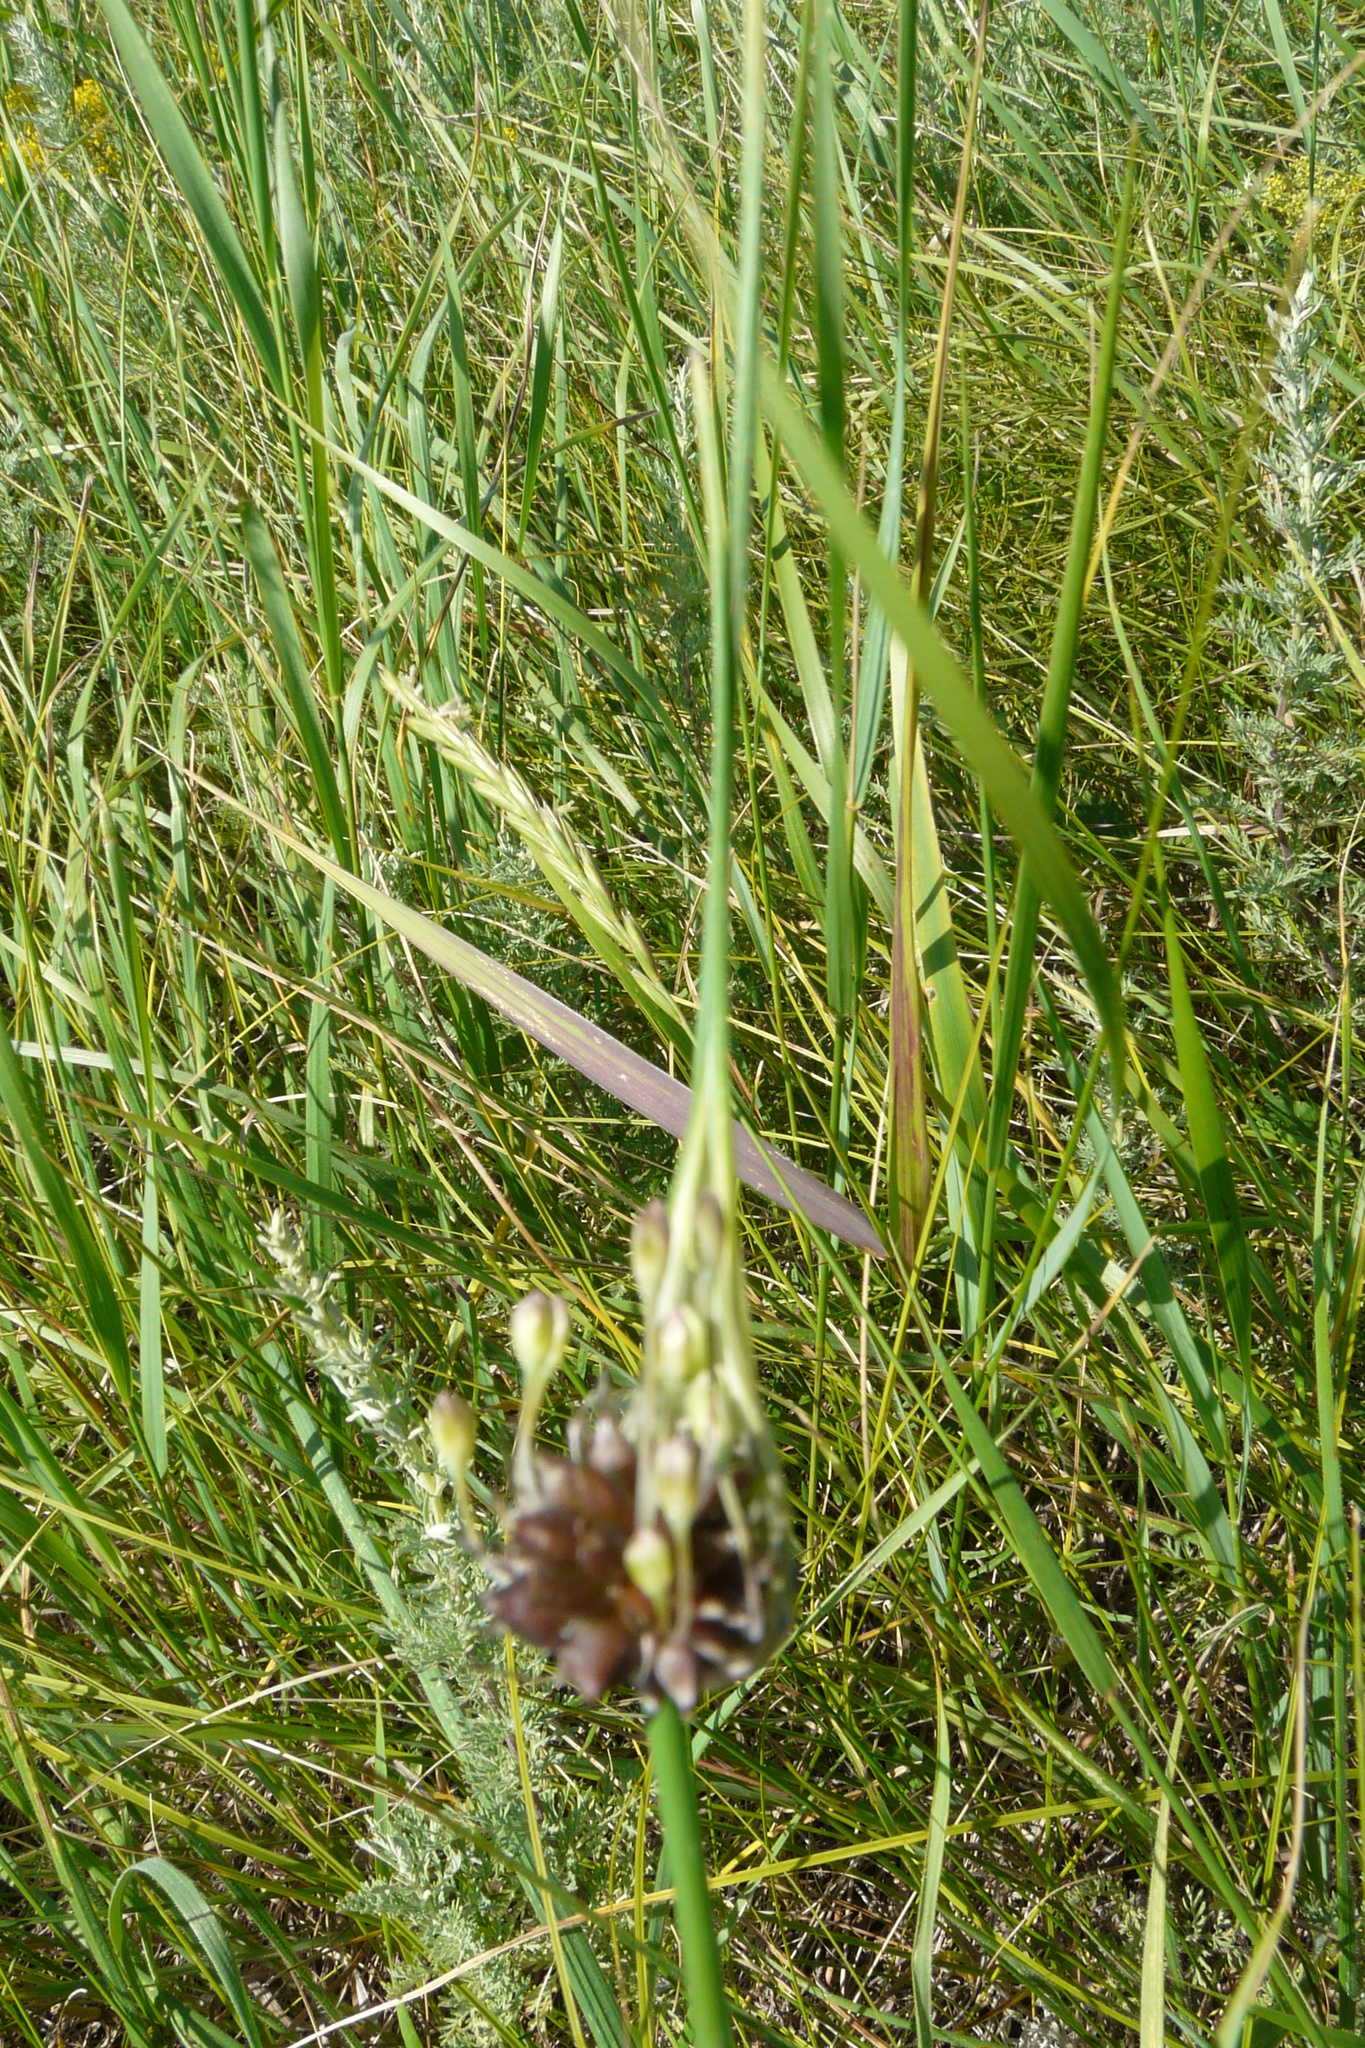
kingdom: Plantae
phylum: Tracheophyta
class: Liliopsida
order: Asparagales
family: Amaryllidaceae
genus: Allium
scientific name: Allium oleraceum
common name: Field garlic
